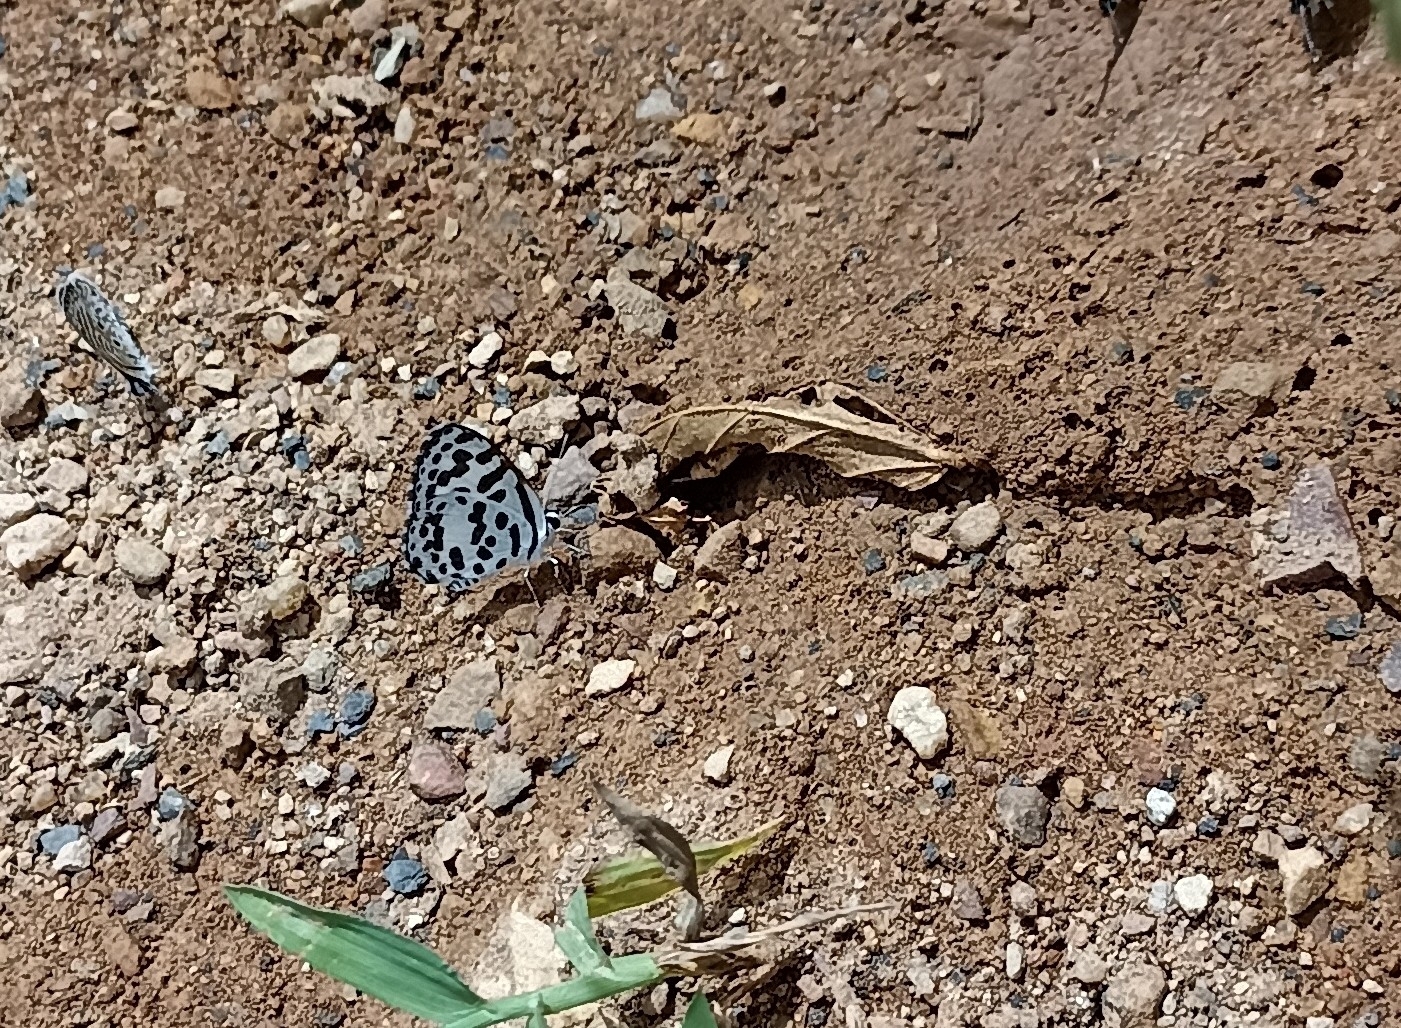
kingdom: Animalia
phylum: Arthropoda
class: Insecta
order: Lepidoptera
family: Lycaenidae
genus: Castalius
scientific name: Castalius rosimon
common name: Common pierrot
